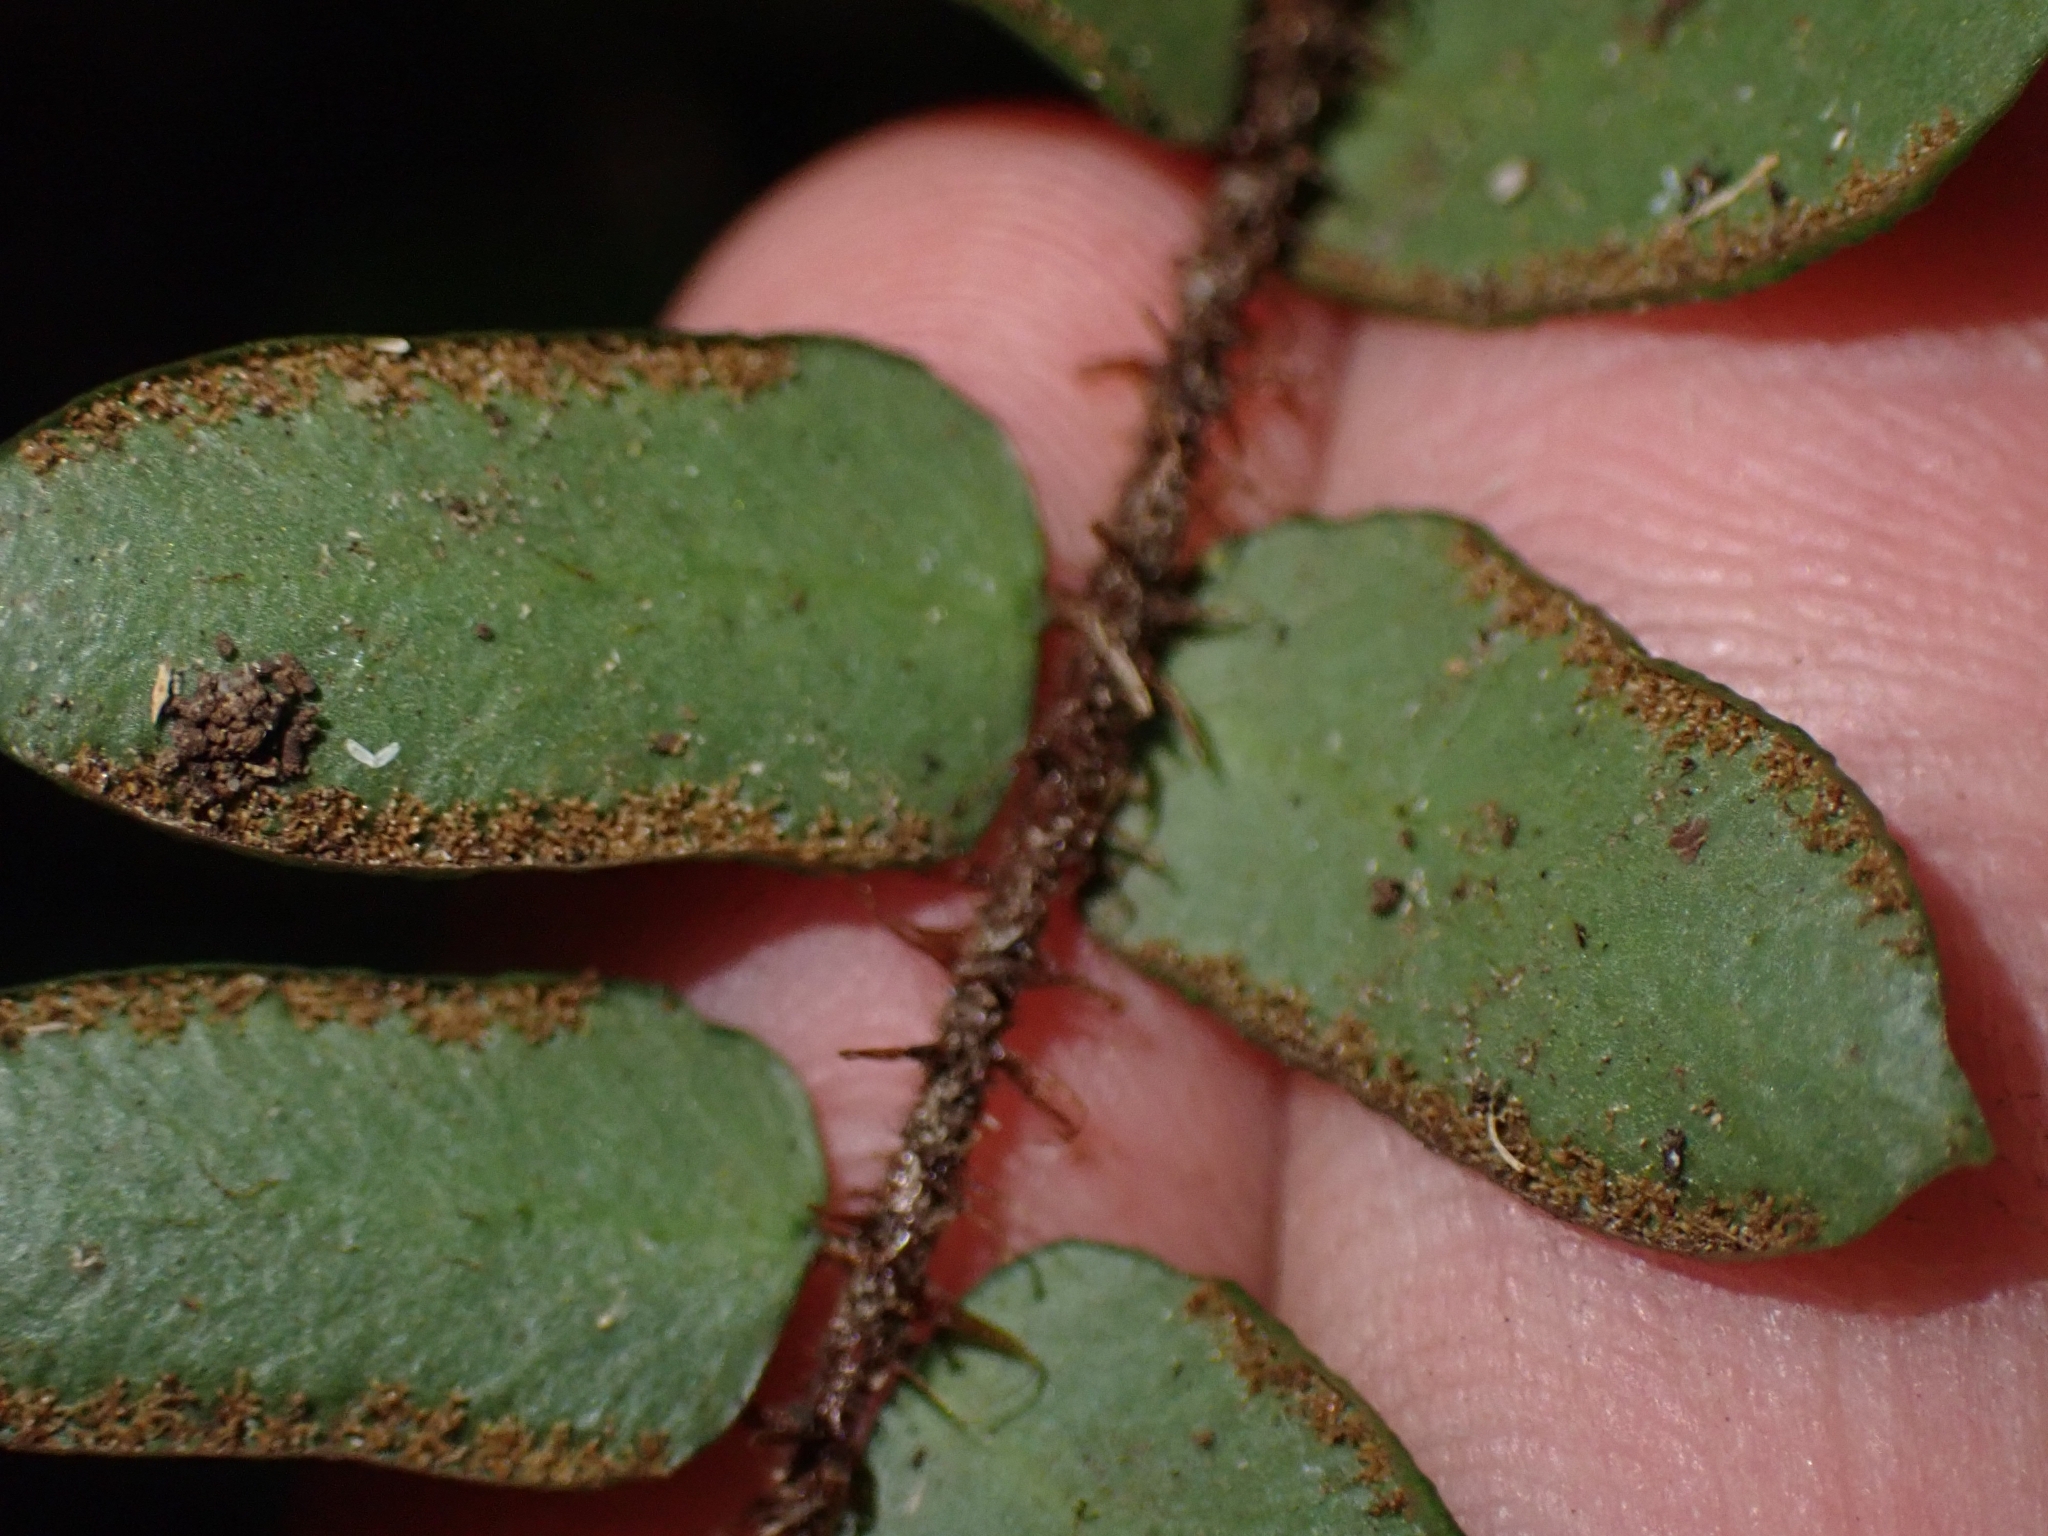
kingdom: Plantae
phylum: Tracheophyta
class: Polypodiopsida
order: Polypodiales
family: Pteridaceae
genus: Pellaea
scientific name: Pellaea rotundifolia
